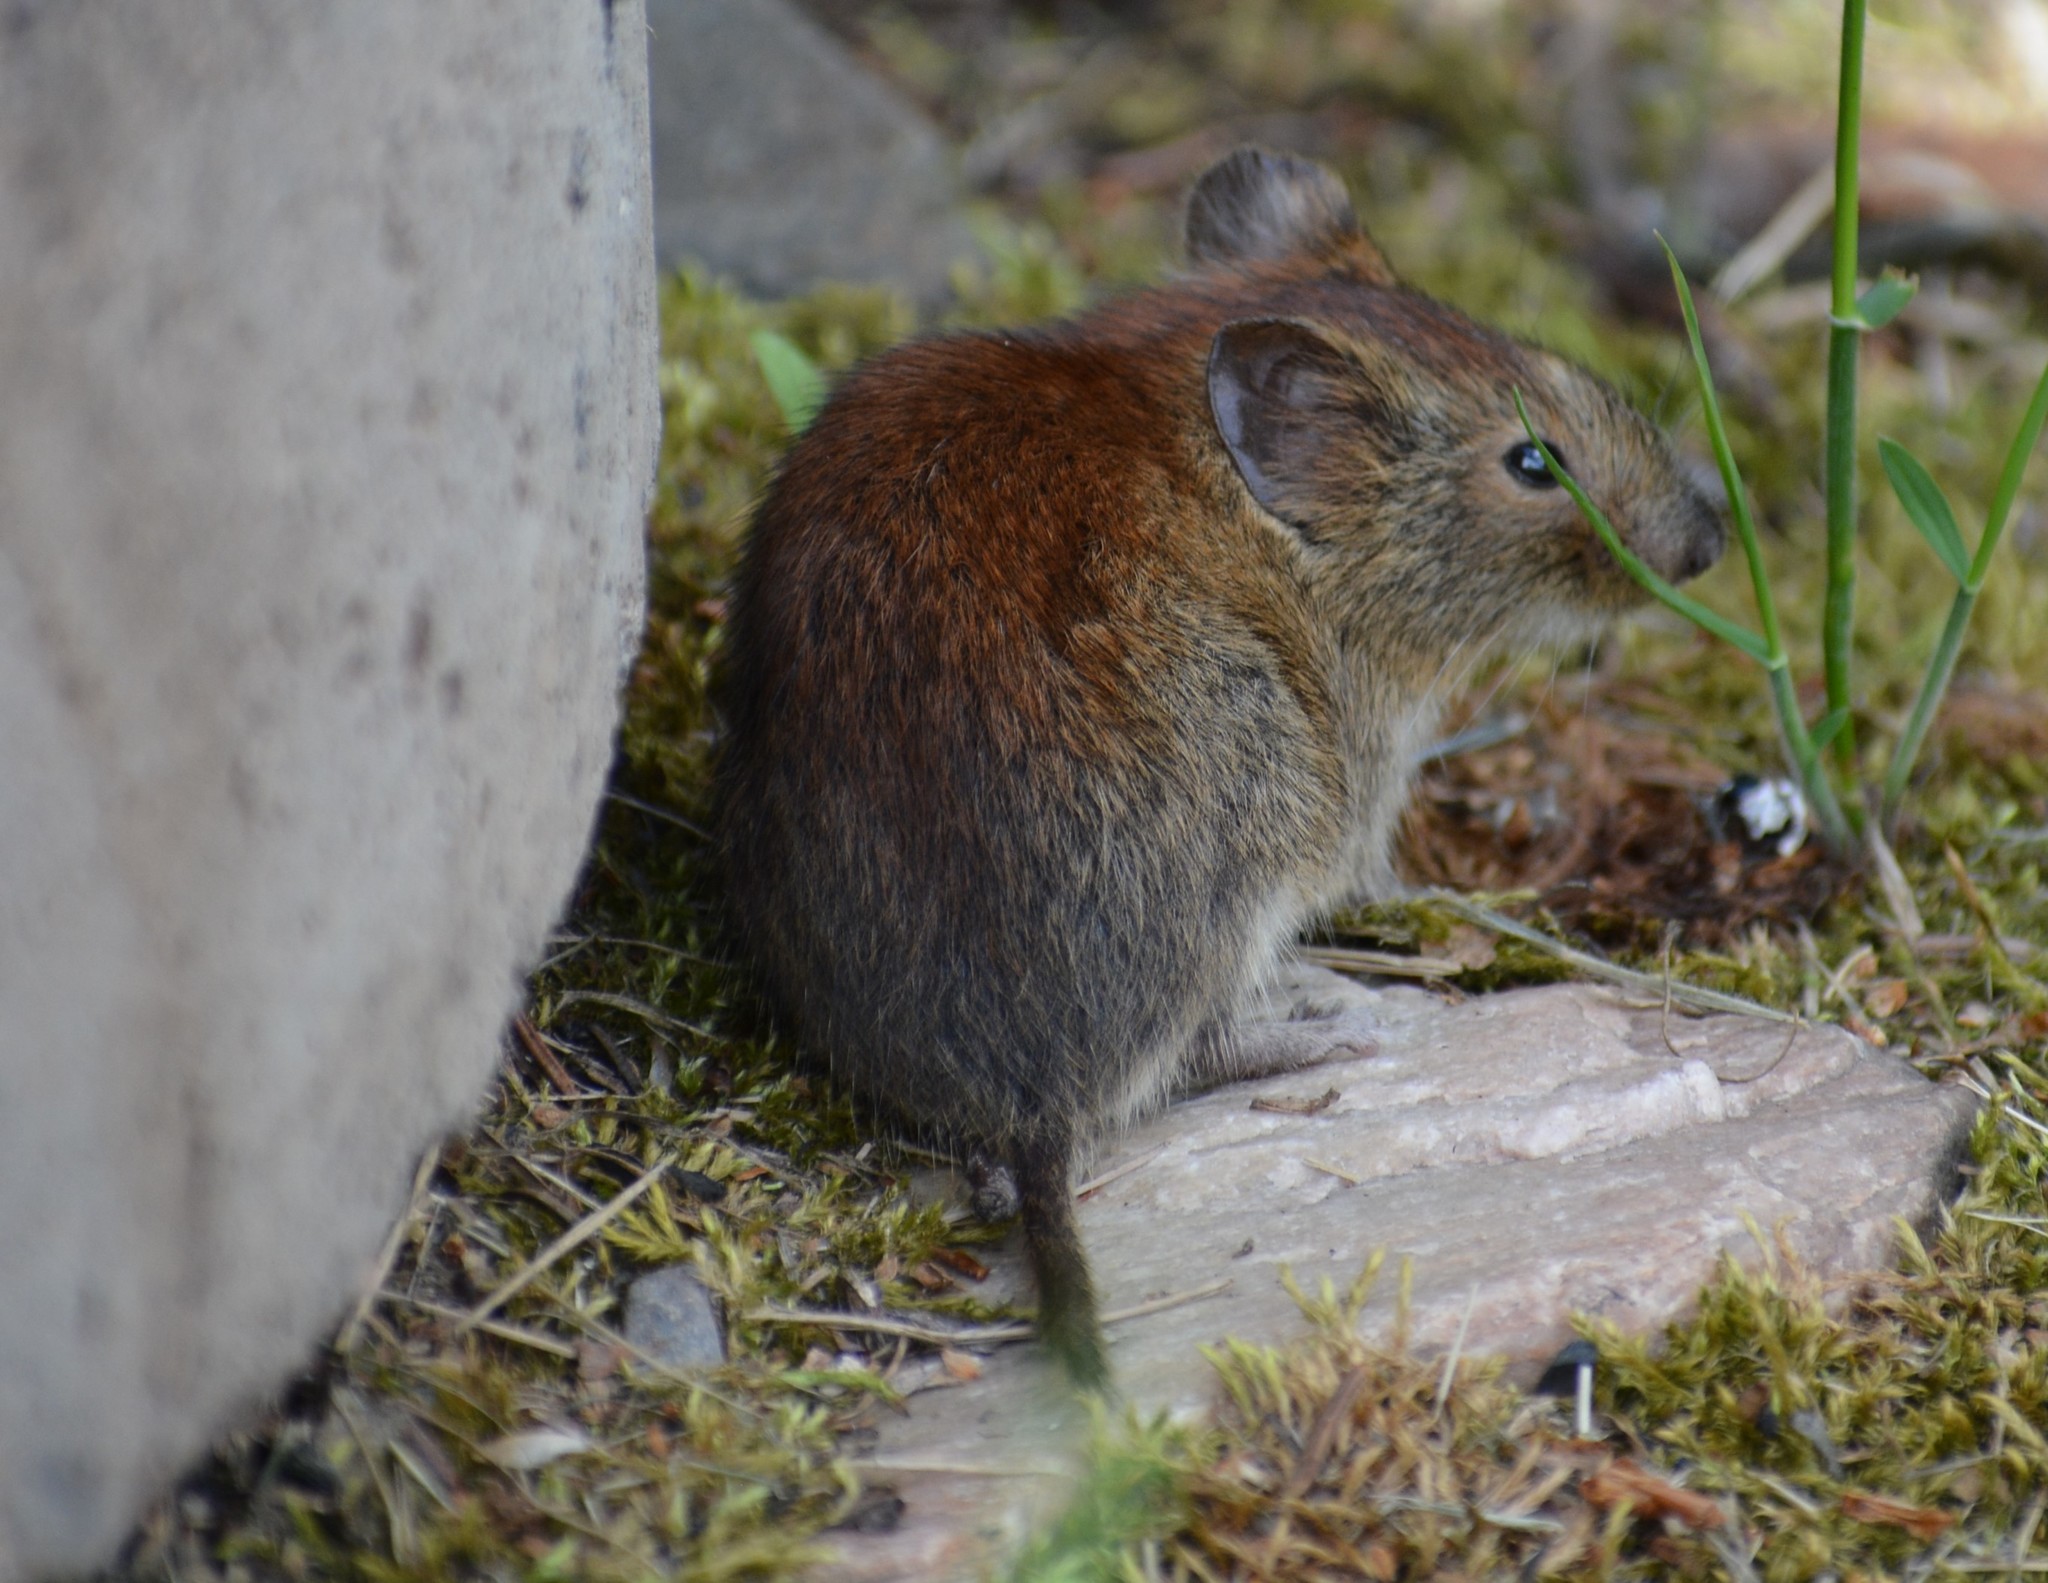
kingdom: Animalia
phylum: Chordata
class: Mammalia
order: Rodentia
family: Cricetidae
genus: Myodes
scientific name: Myodes rutilus
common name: Northern red-backed vole
